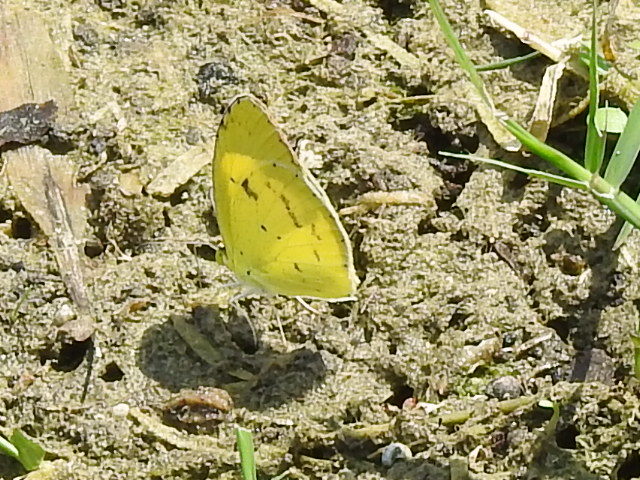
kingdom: Animalia
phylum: Arthropoda
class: Insecta
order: Lepidoptera
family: Pieridae
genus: Pyrisitia
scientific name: Pyrisitia lisa
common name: Little yellow
